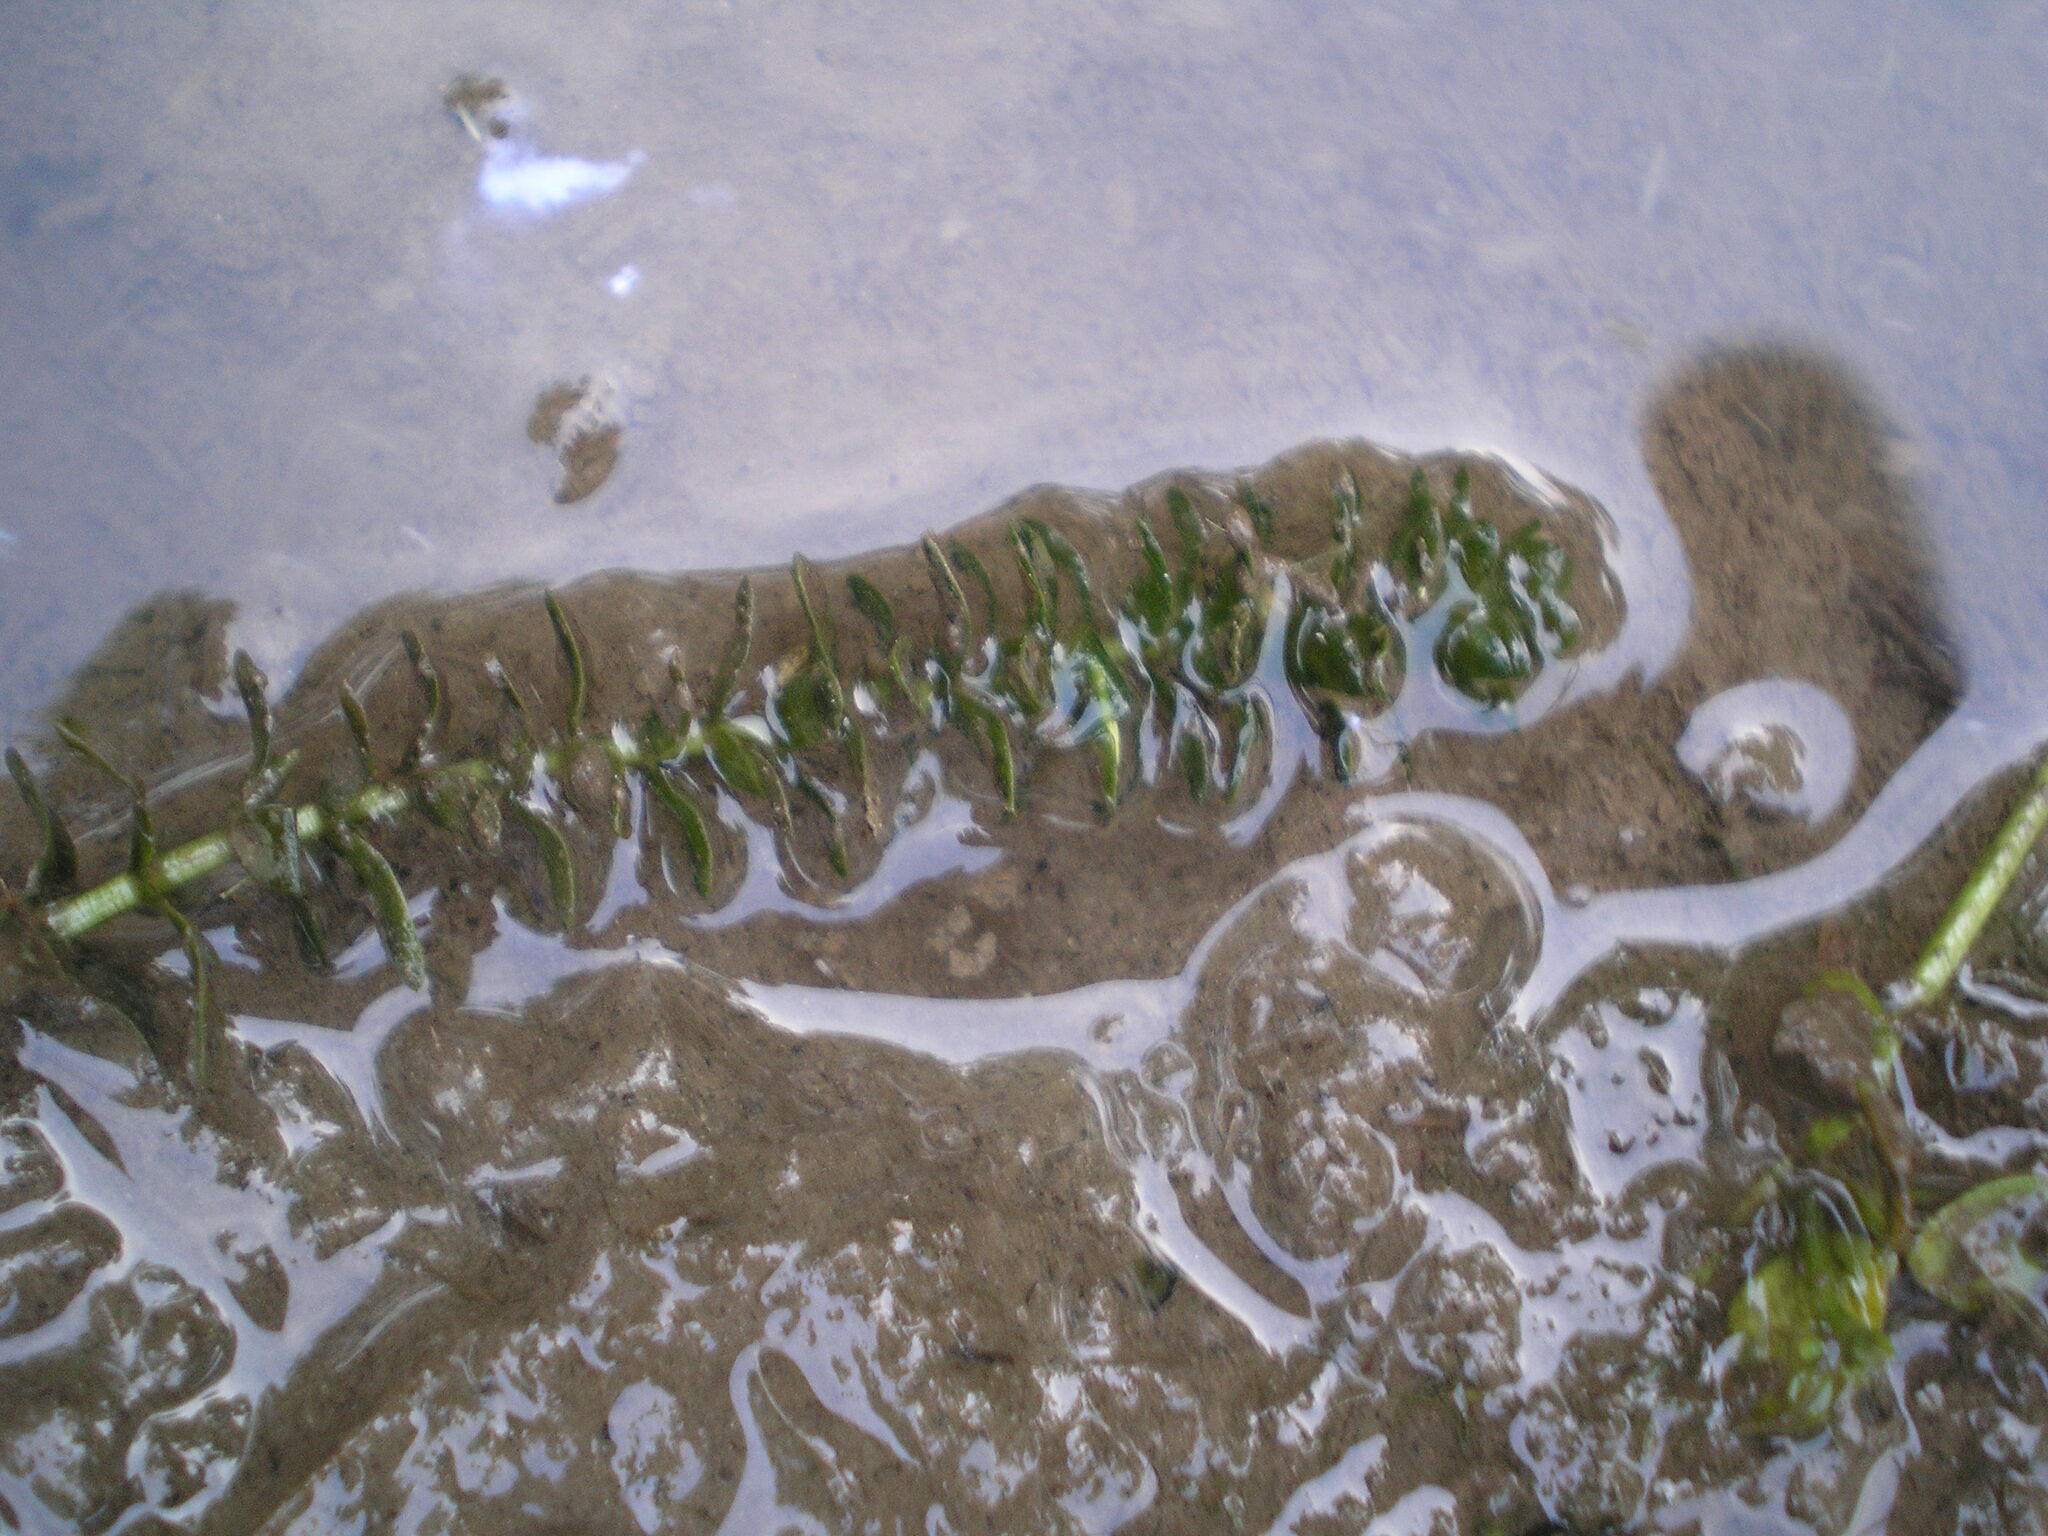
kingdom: Plantae
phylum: Tracheophyta
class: Liliopsida
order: Alismatales
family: Hydrocharitaceae
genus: Elodea
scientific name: Elodea canadensis
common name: Canadian waterweed
